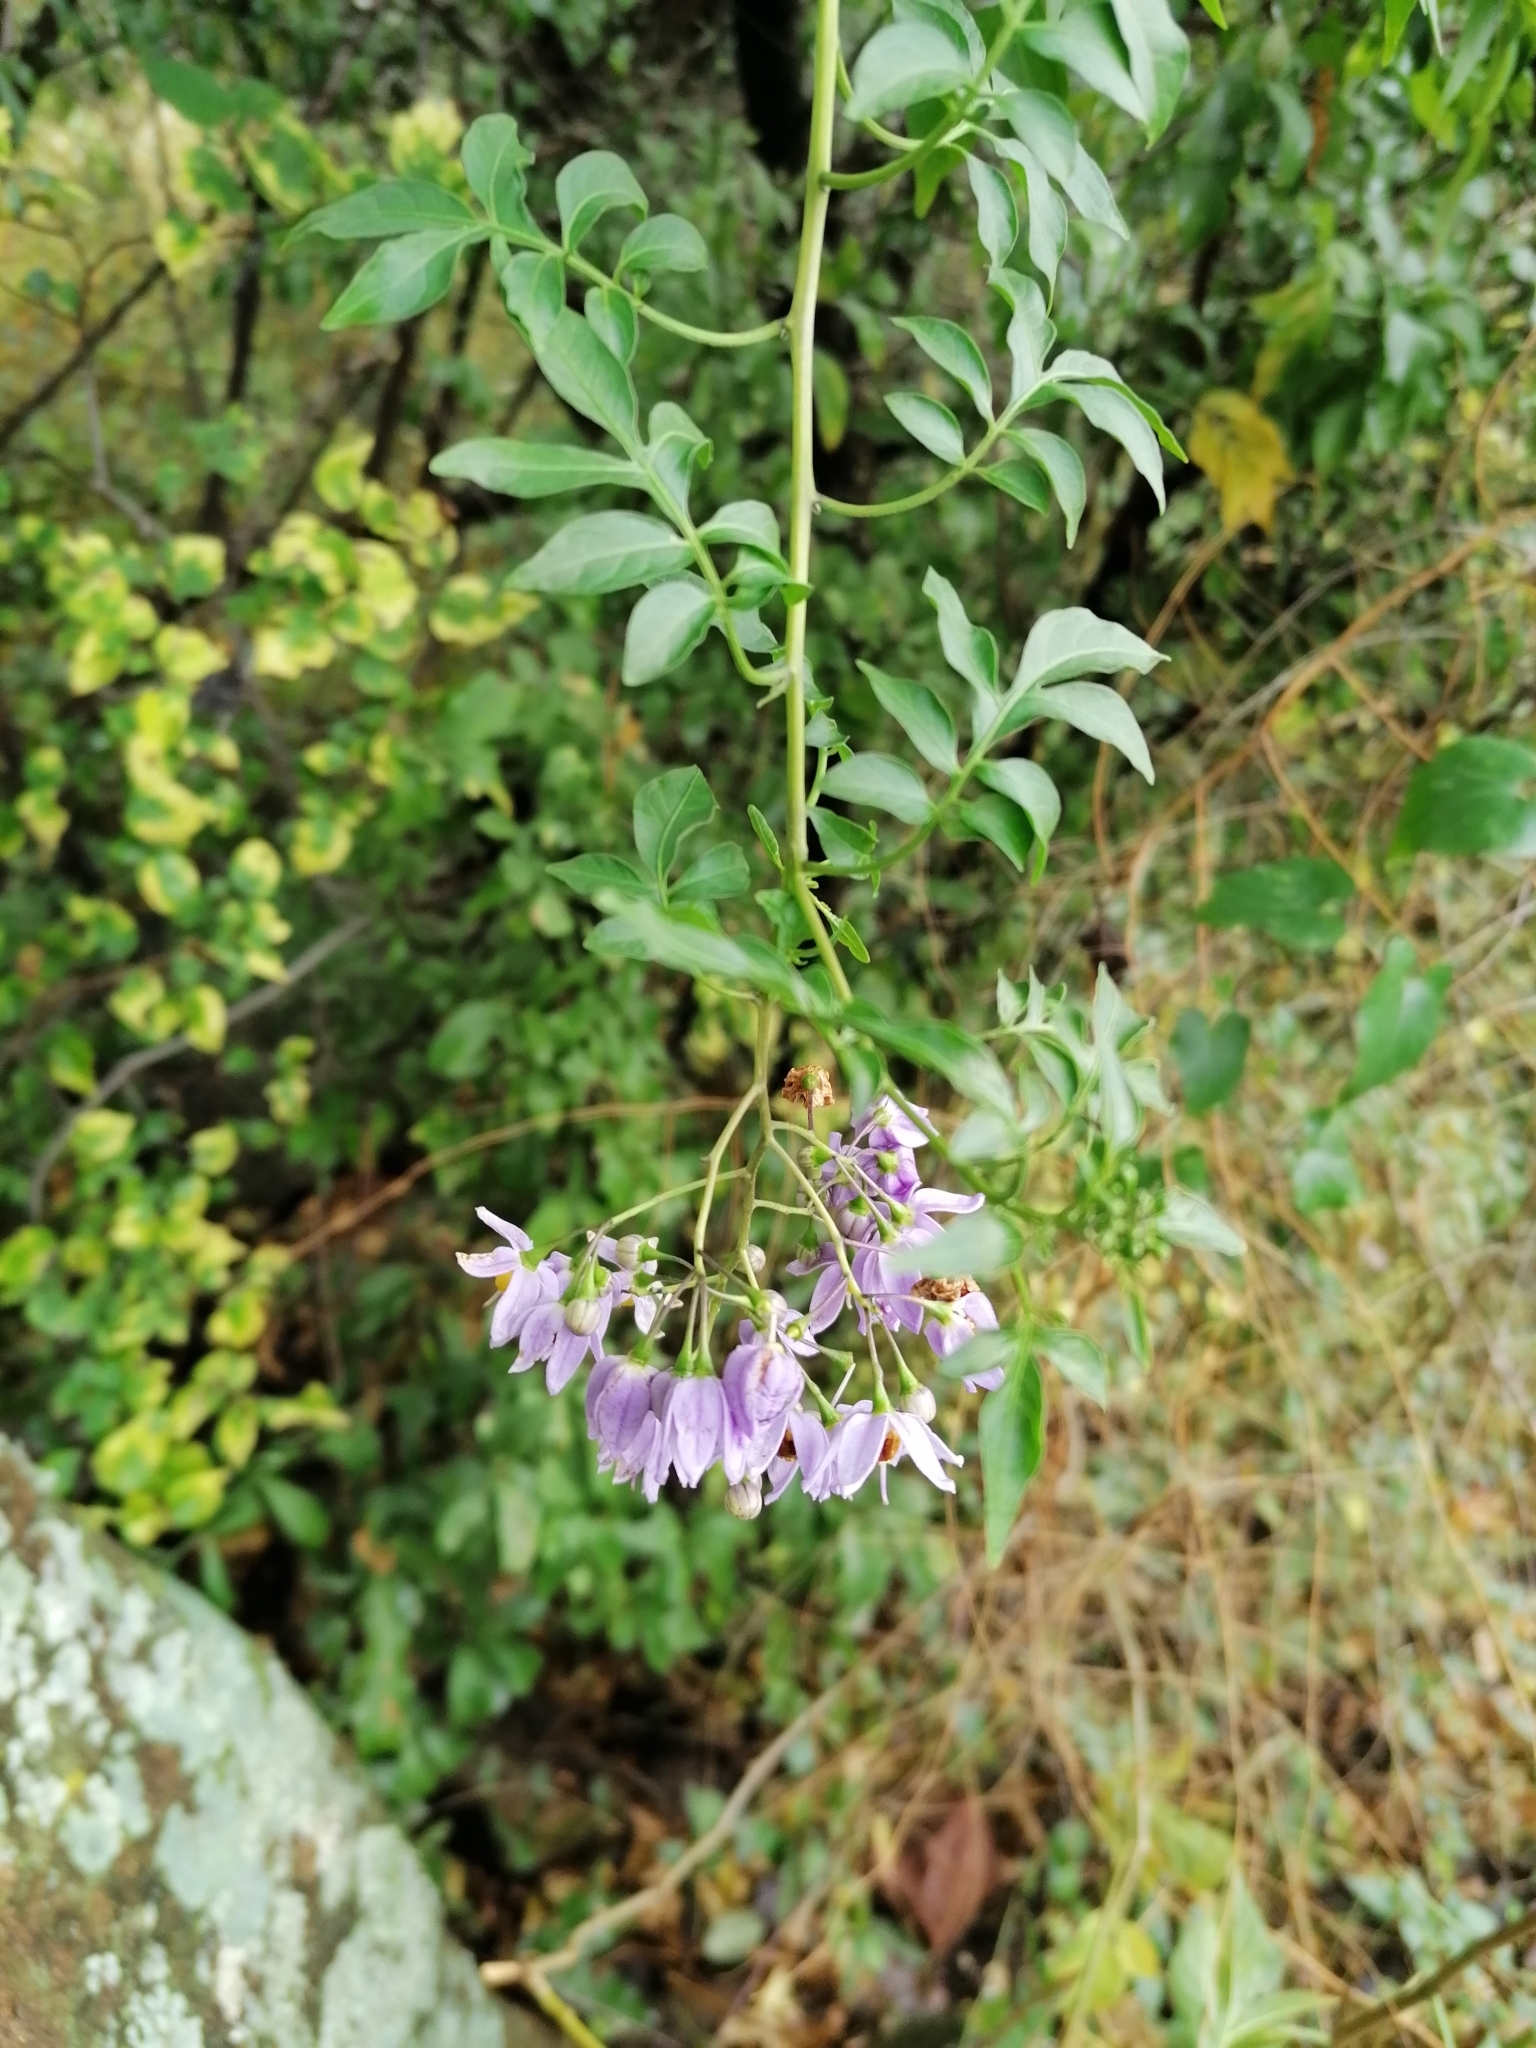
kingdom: Plantae
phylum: Tracheophyta
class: Magnoliopsida
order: Solanales
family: Solanaceae
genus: Solanum
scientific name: Solanum seaforthianum
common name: Brazilian nightshade
